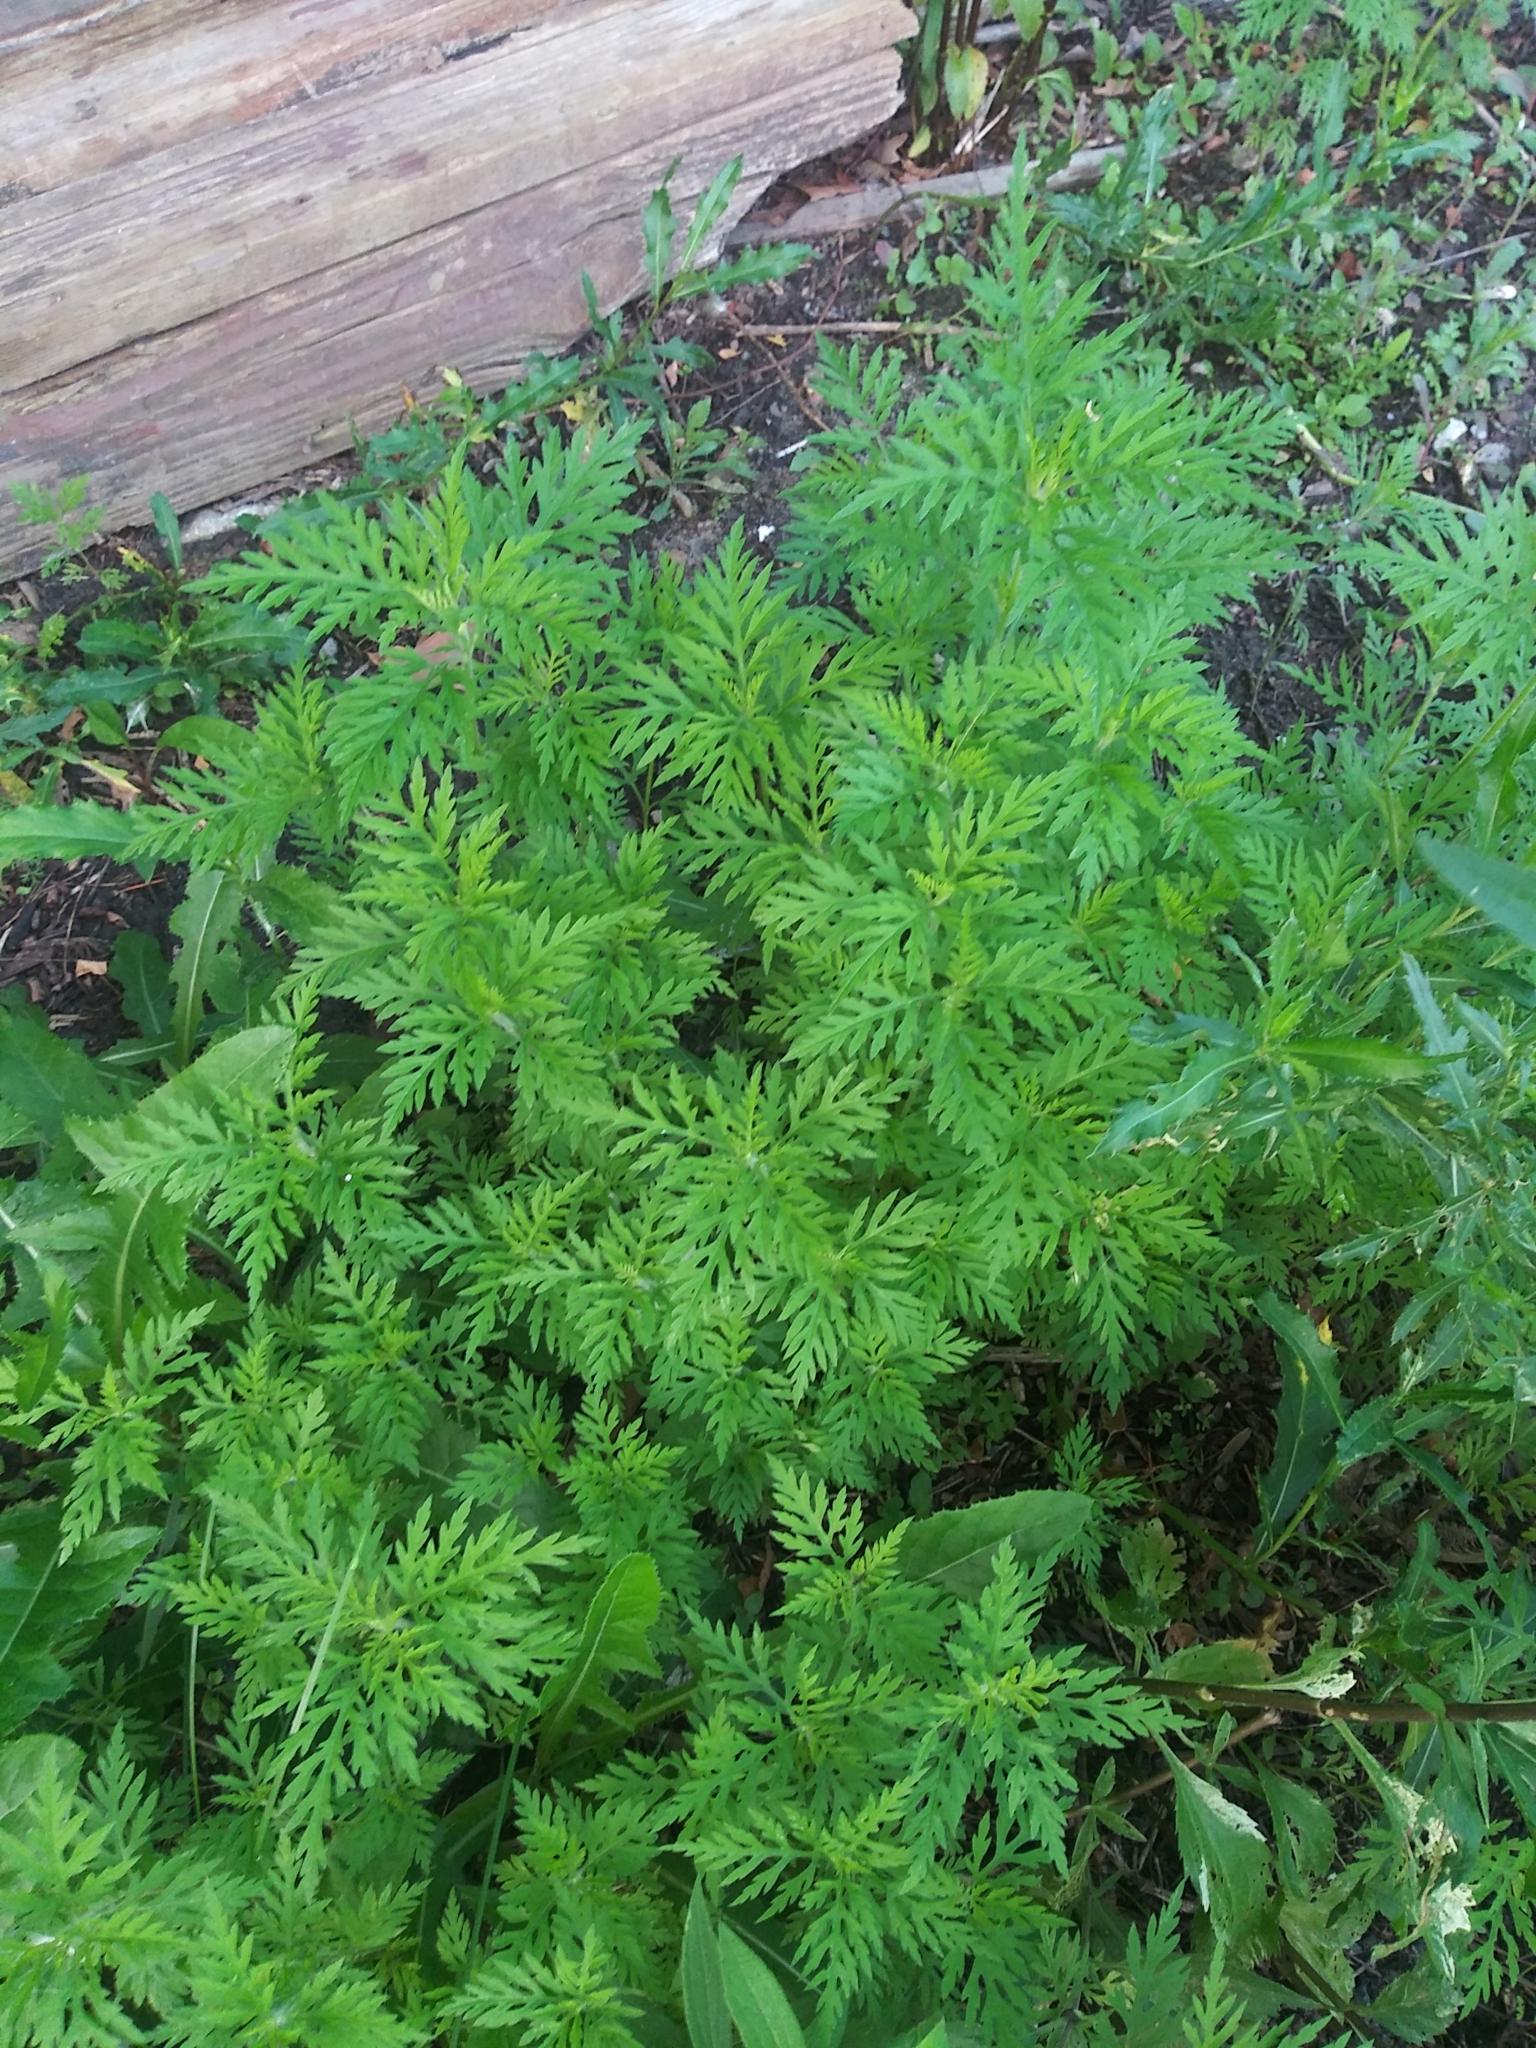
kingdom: Plantae
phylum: Tracheophyta
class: Magnoliopsida
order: Asterales
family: Asteraceae
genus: Ambrosia
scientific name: Ambrosia artemisiifolia
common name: Annual ragweed
